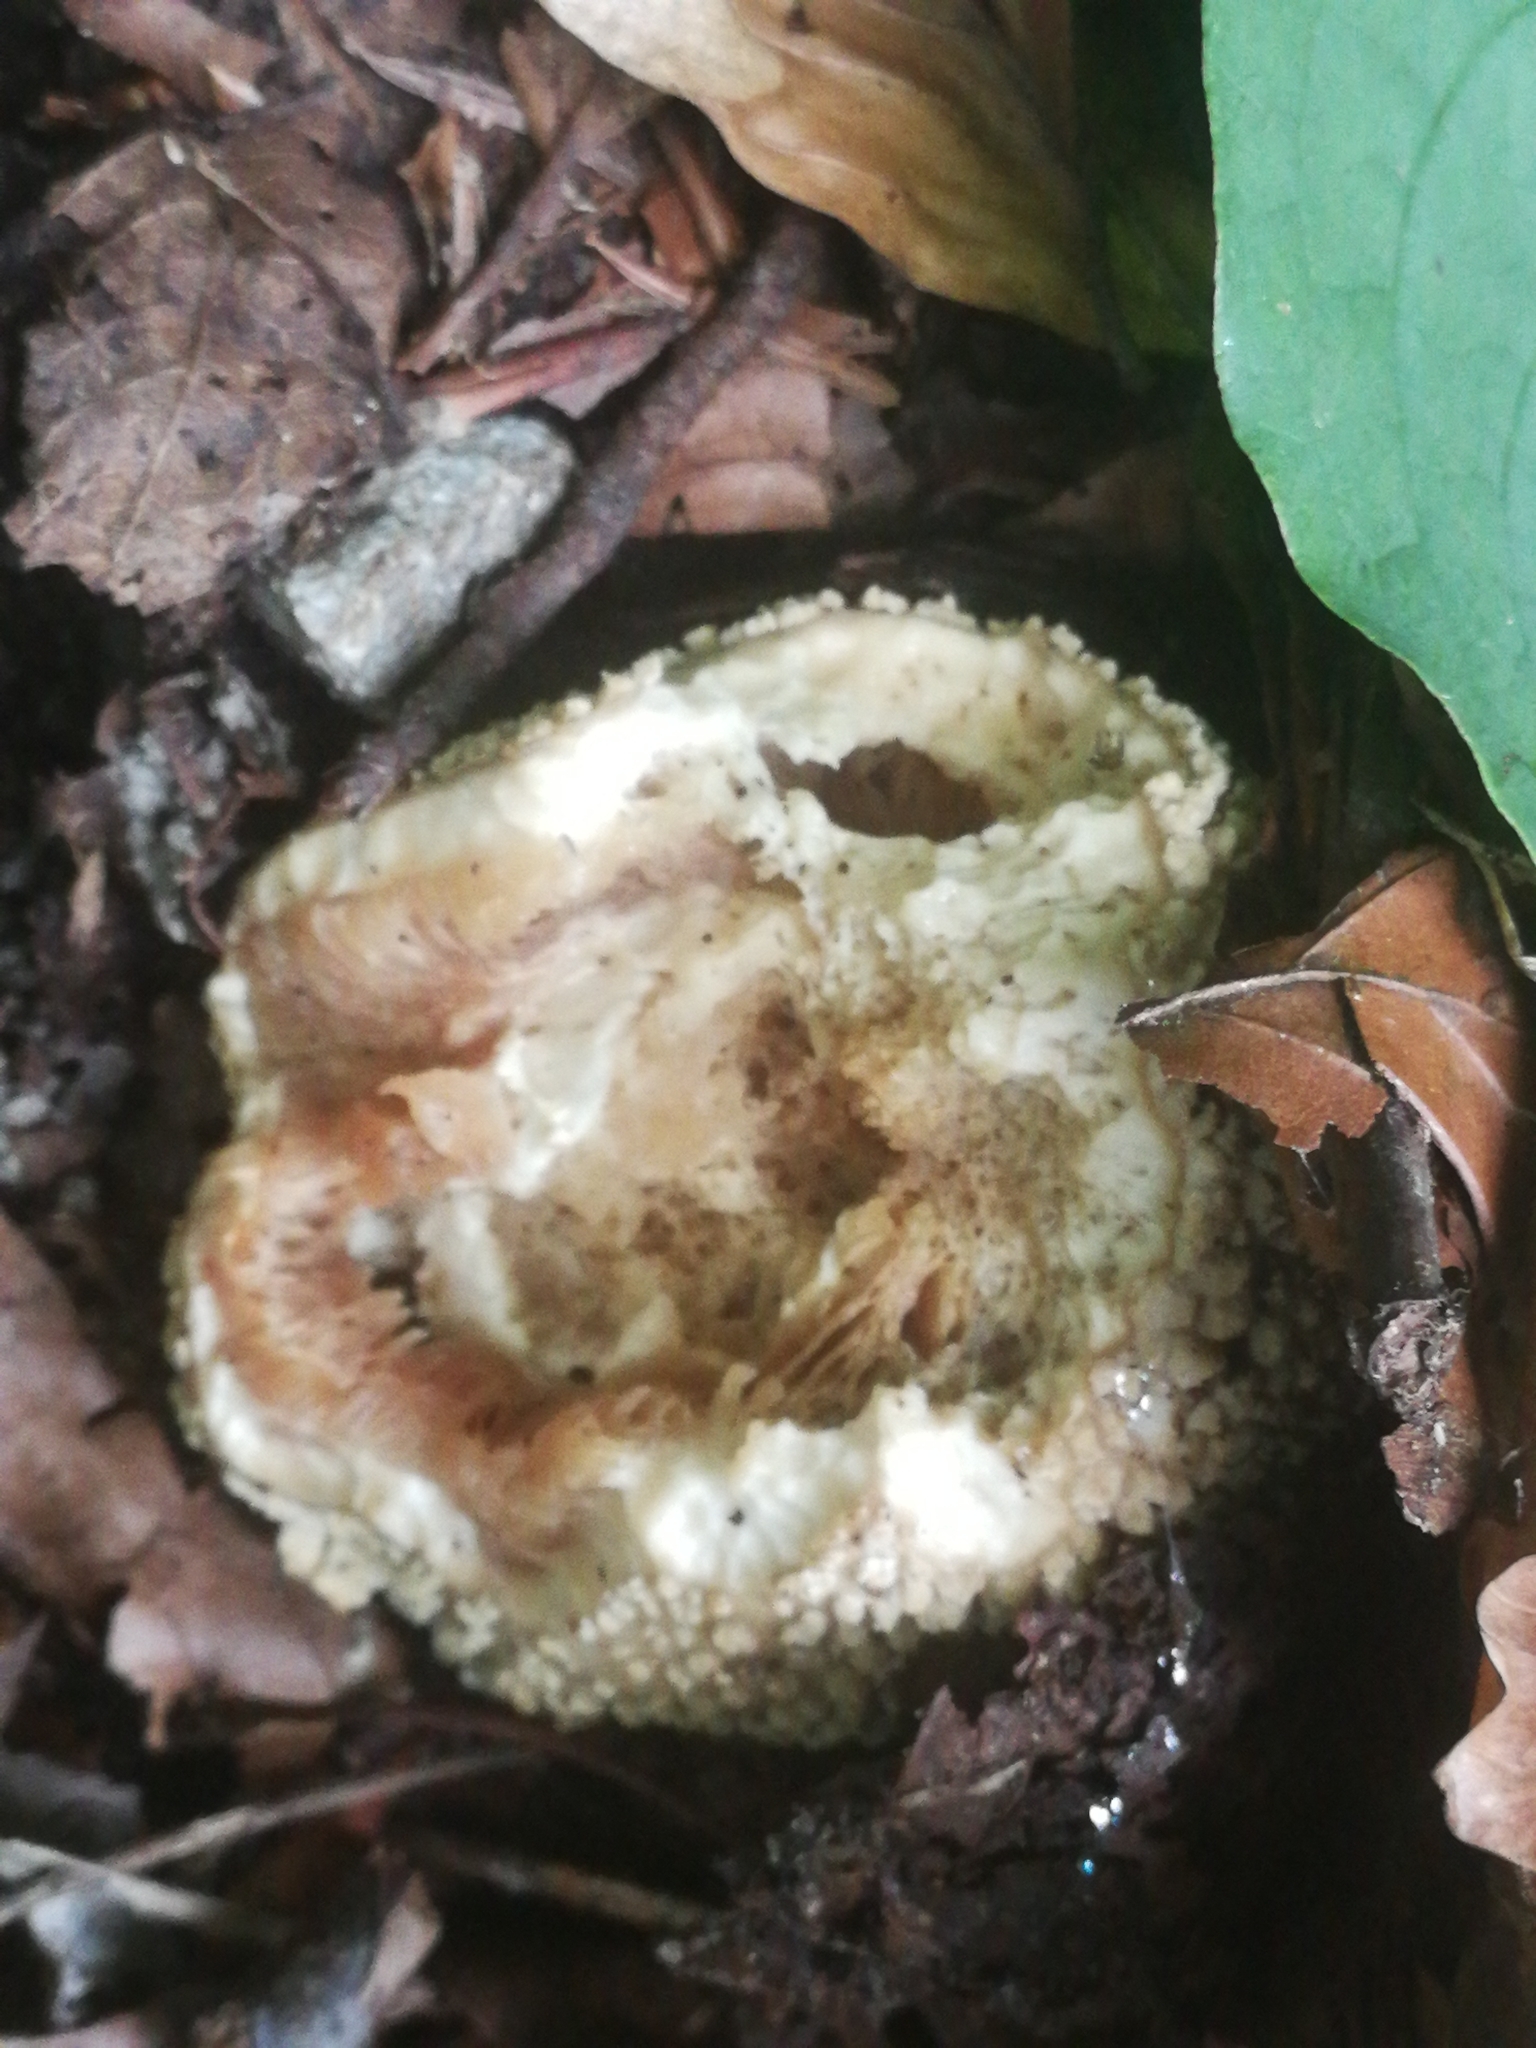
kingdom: Fungi
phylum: Basidiomycota
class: Agaricomycetes
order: Agaricales
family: Amanitaceae
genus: Amanita
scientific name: Amanita rubescens
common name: Blusher
